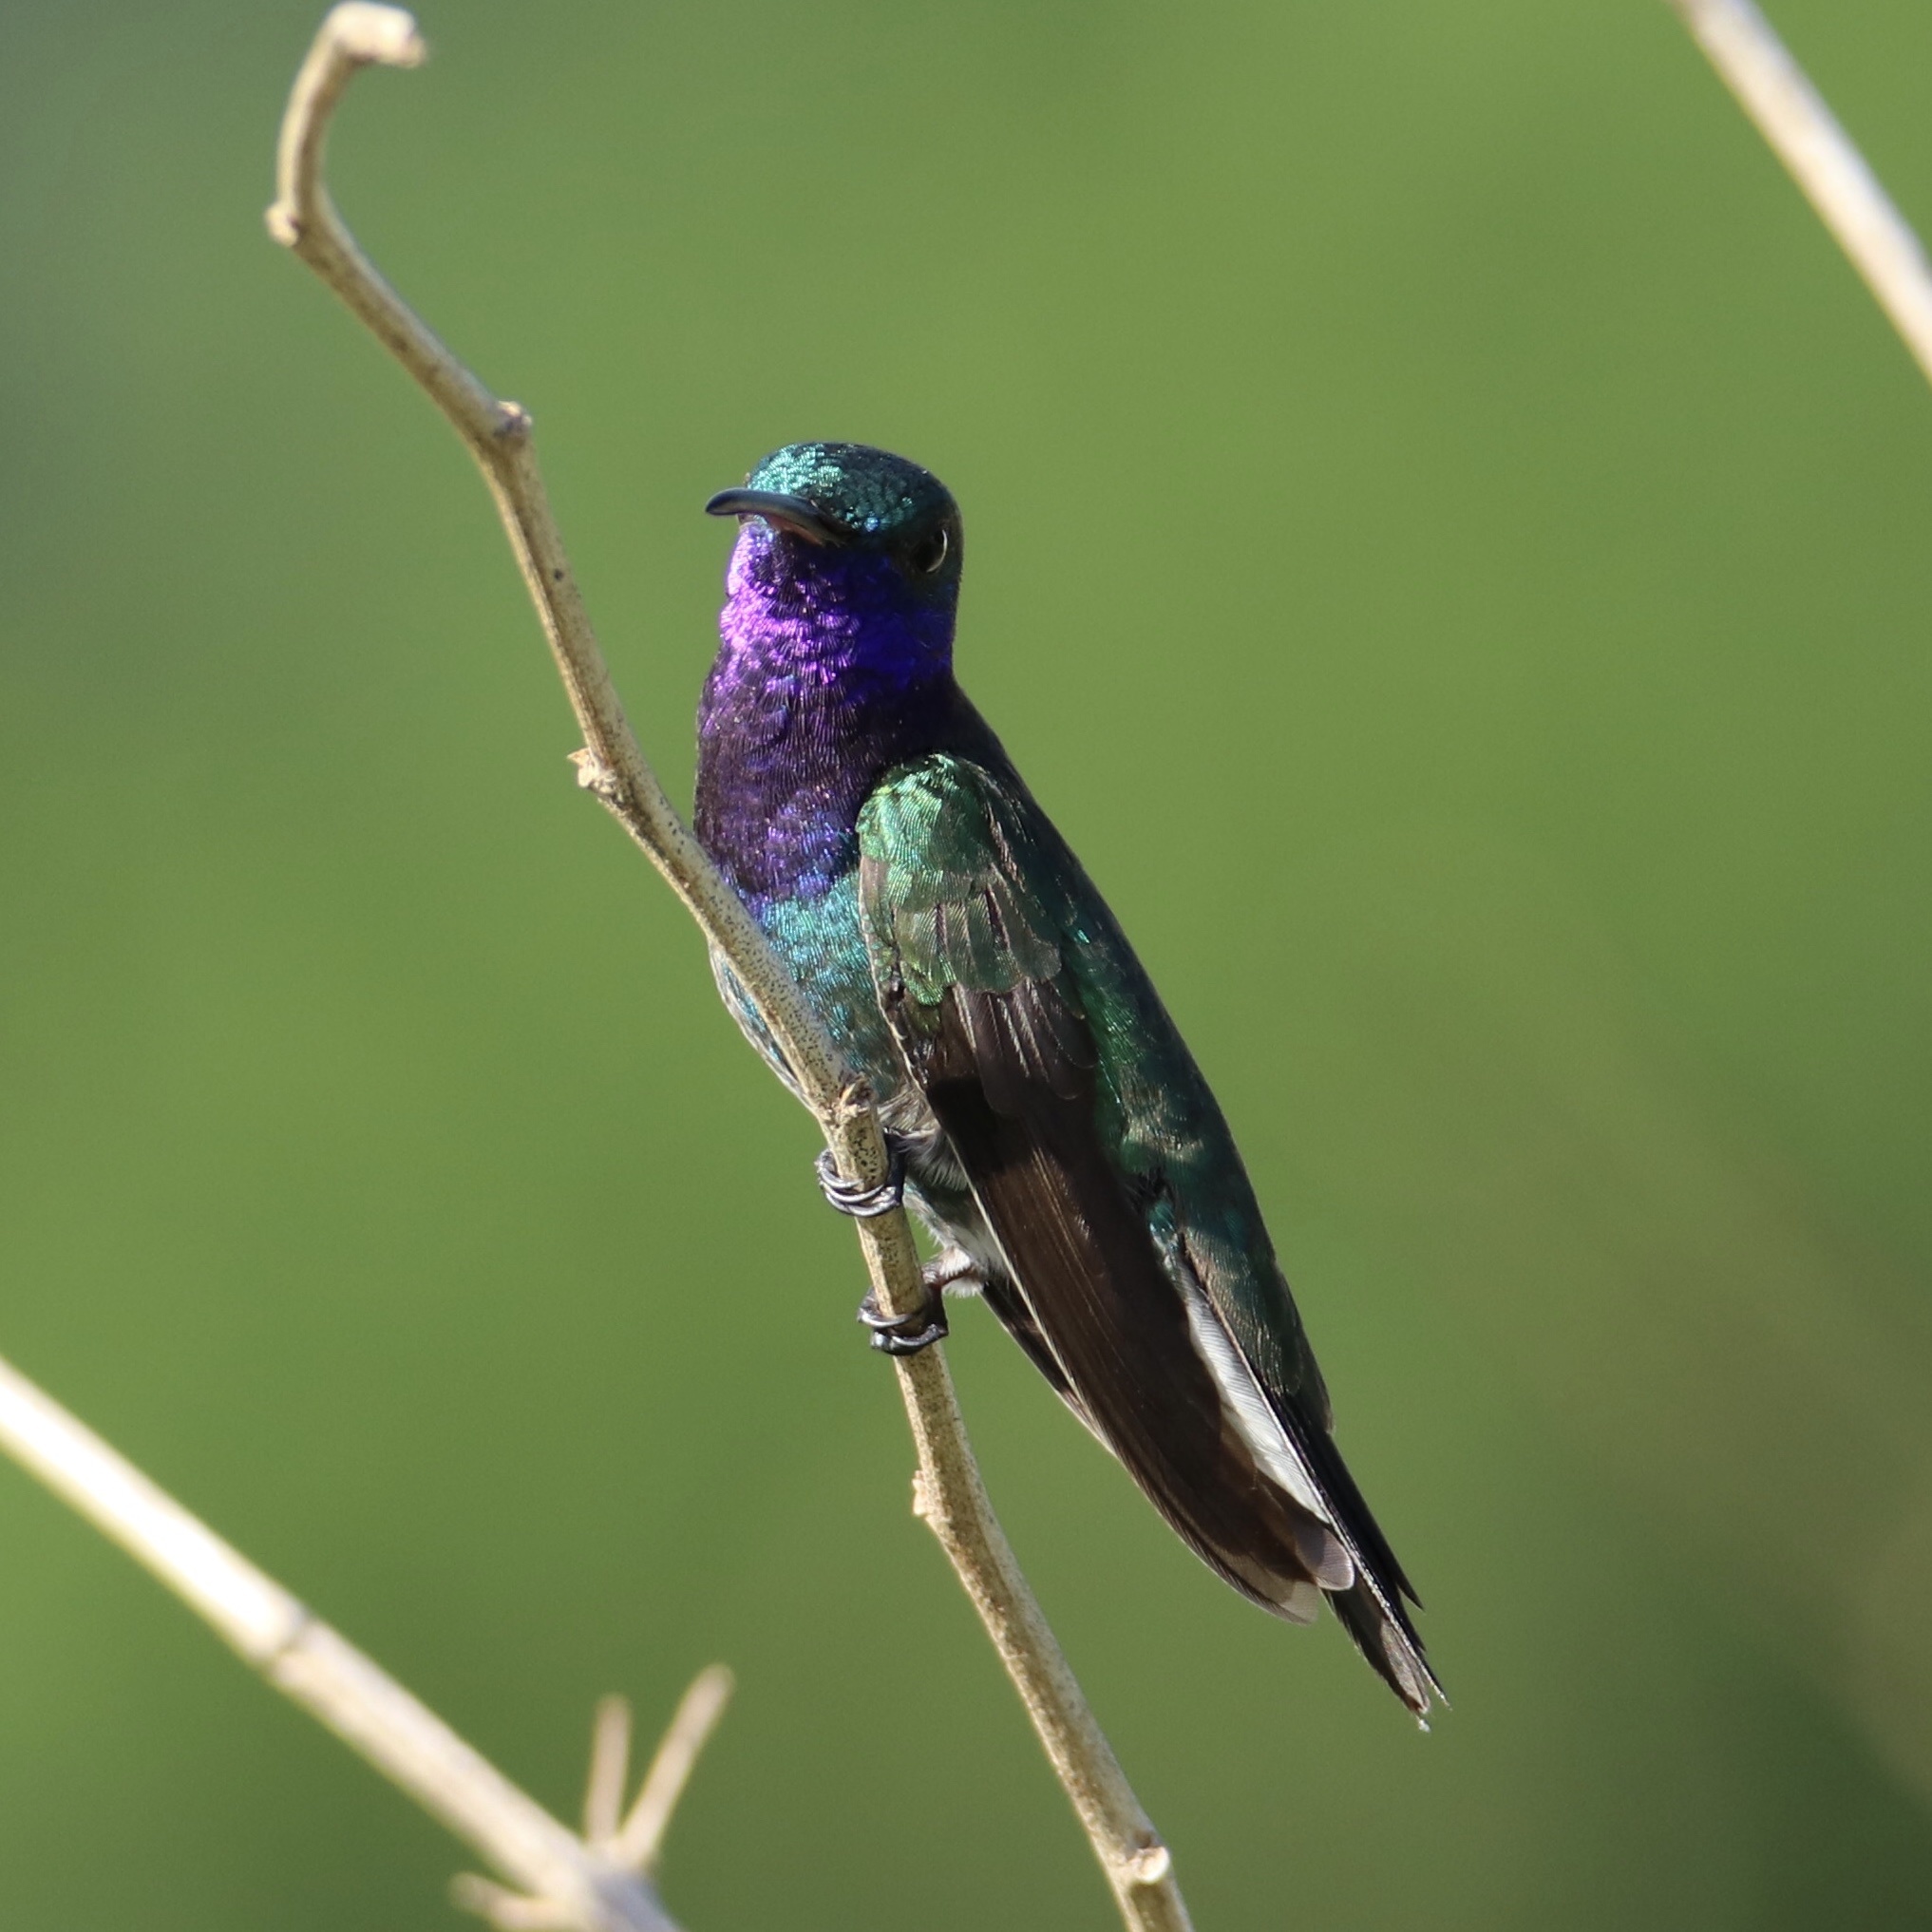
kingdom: Animalia
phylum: Chordata
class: Aves
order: Apodiformes
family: Trochilidae
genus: Chrysuronia
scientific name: Chrysuronia coeruleogularis
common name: Sapphire-throated hummingbird
